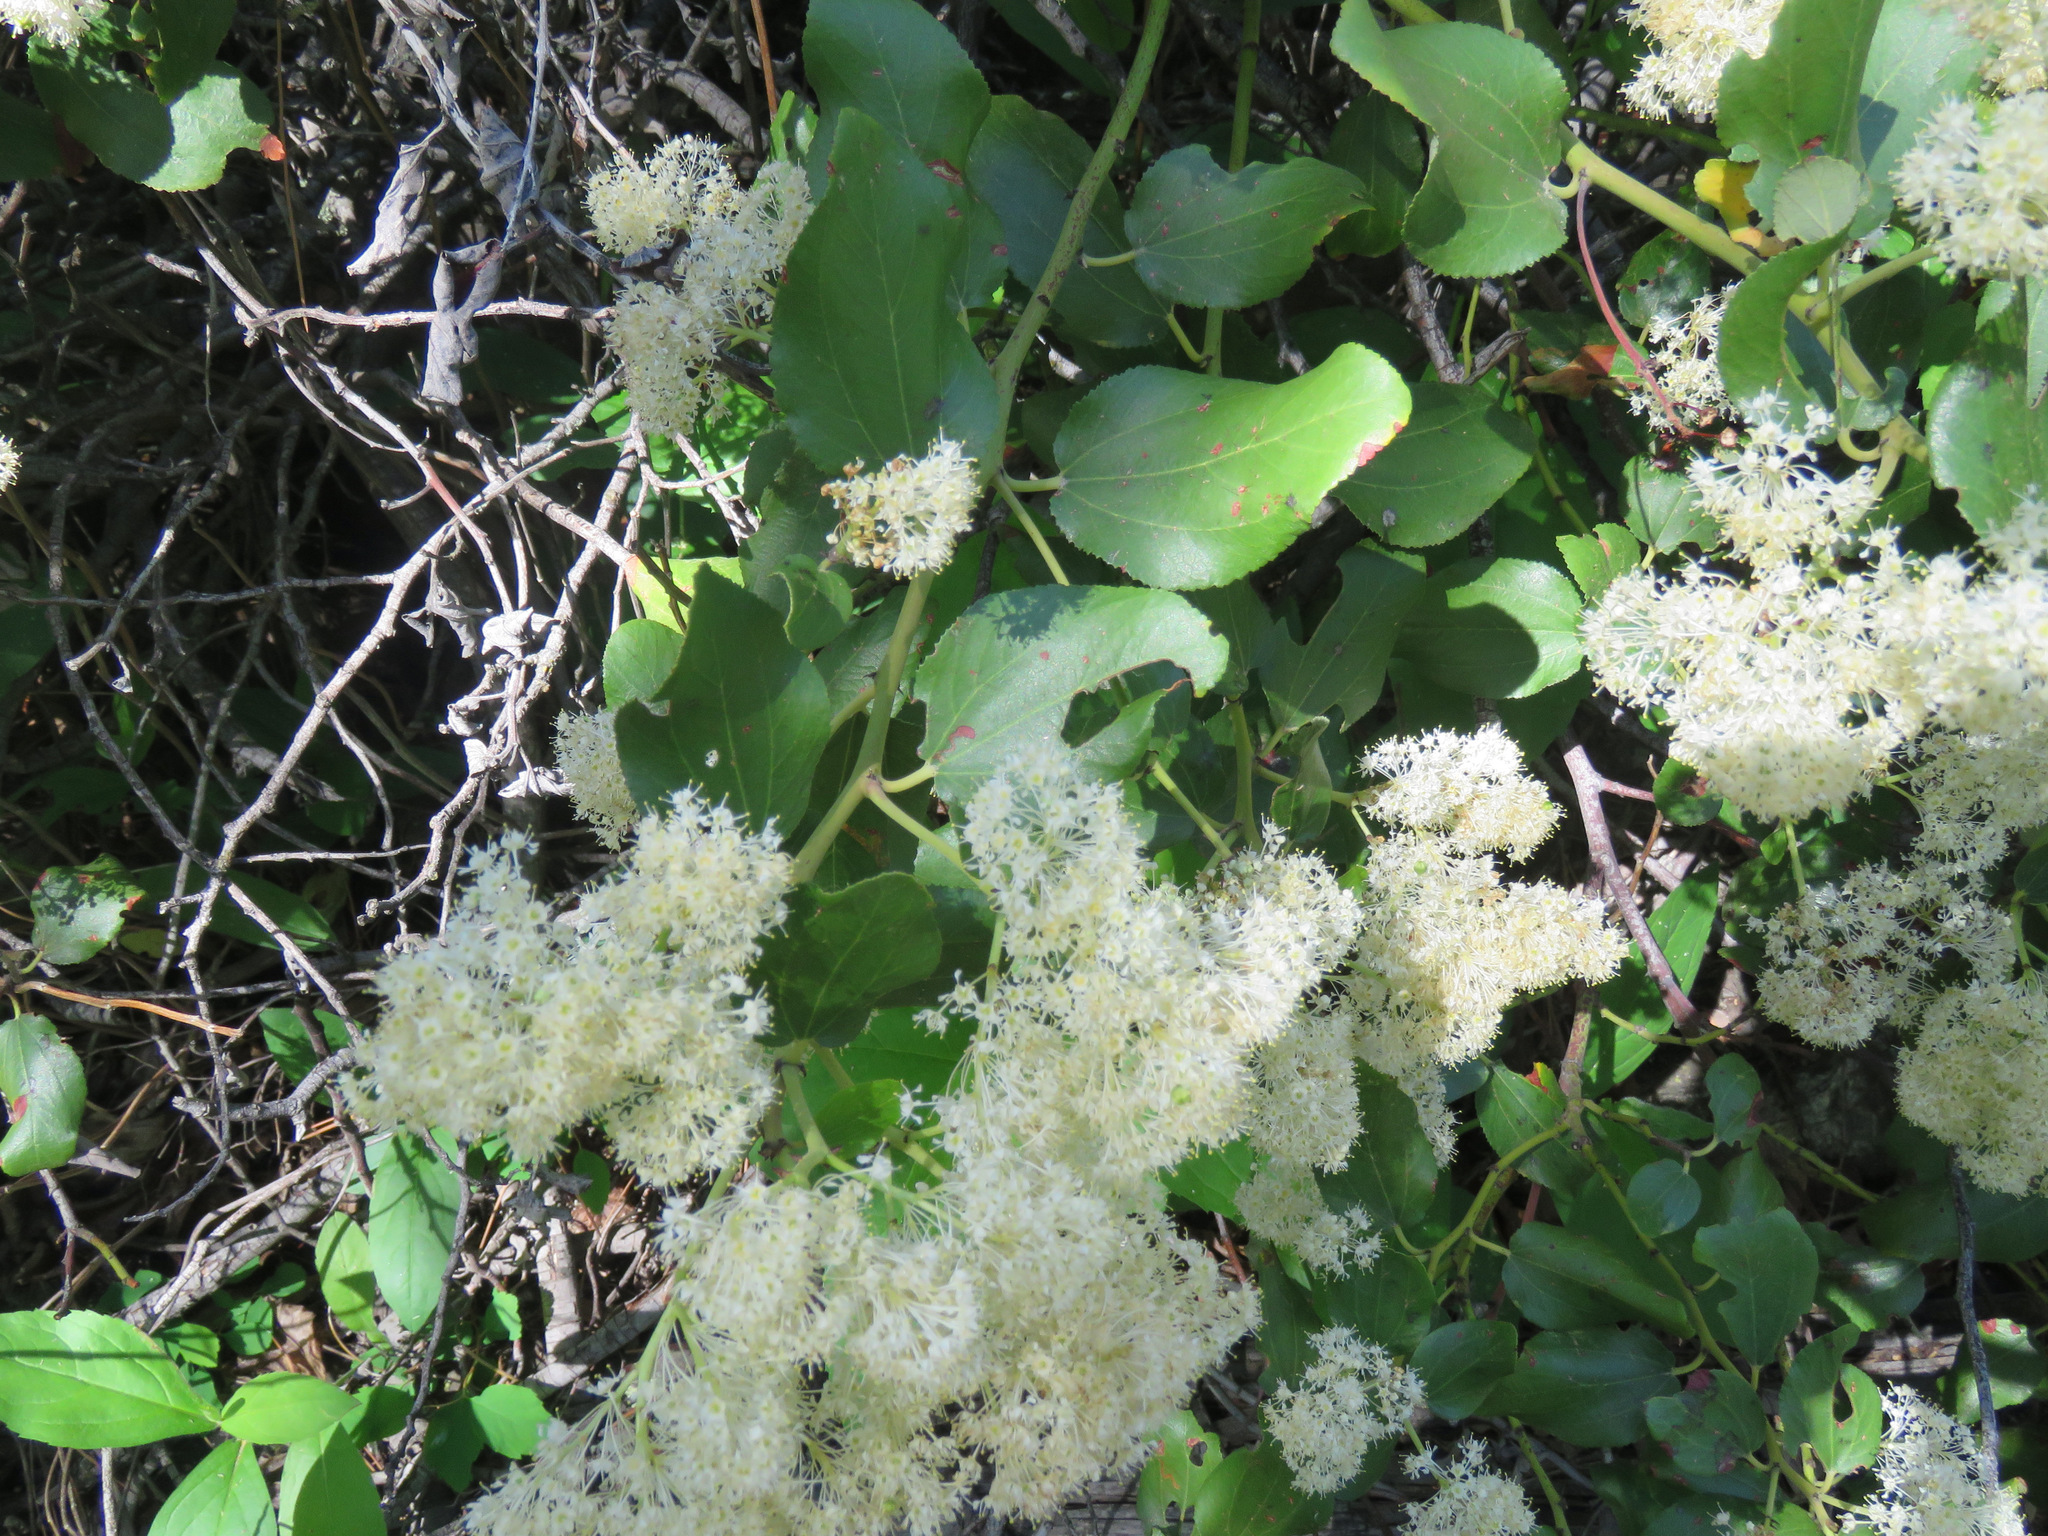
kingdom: Plantae
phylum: Tracheophyta
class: Magnoliopsida
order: Rosales
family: Rhamnaceae
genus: Ceanothus
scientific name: Ceanothus velutinus
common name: Snowbrush
